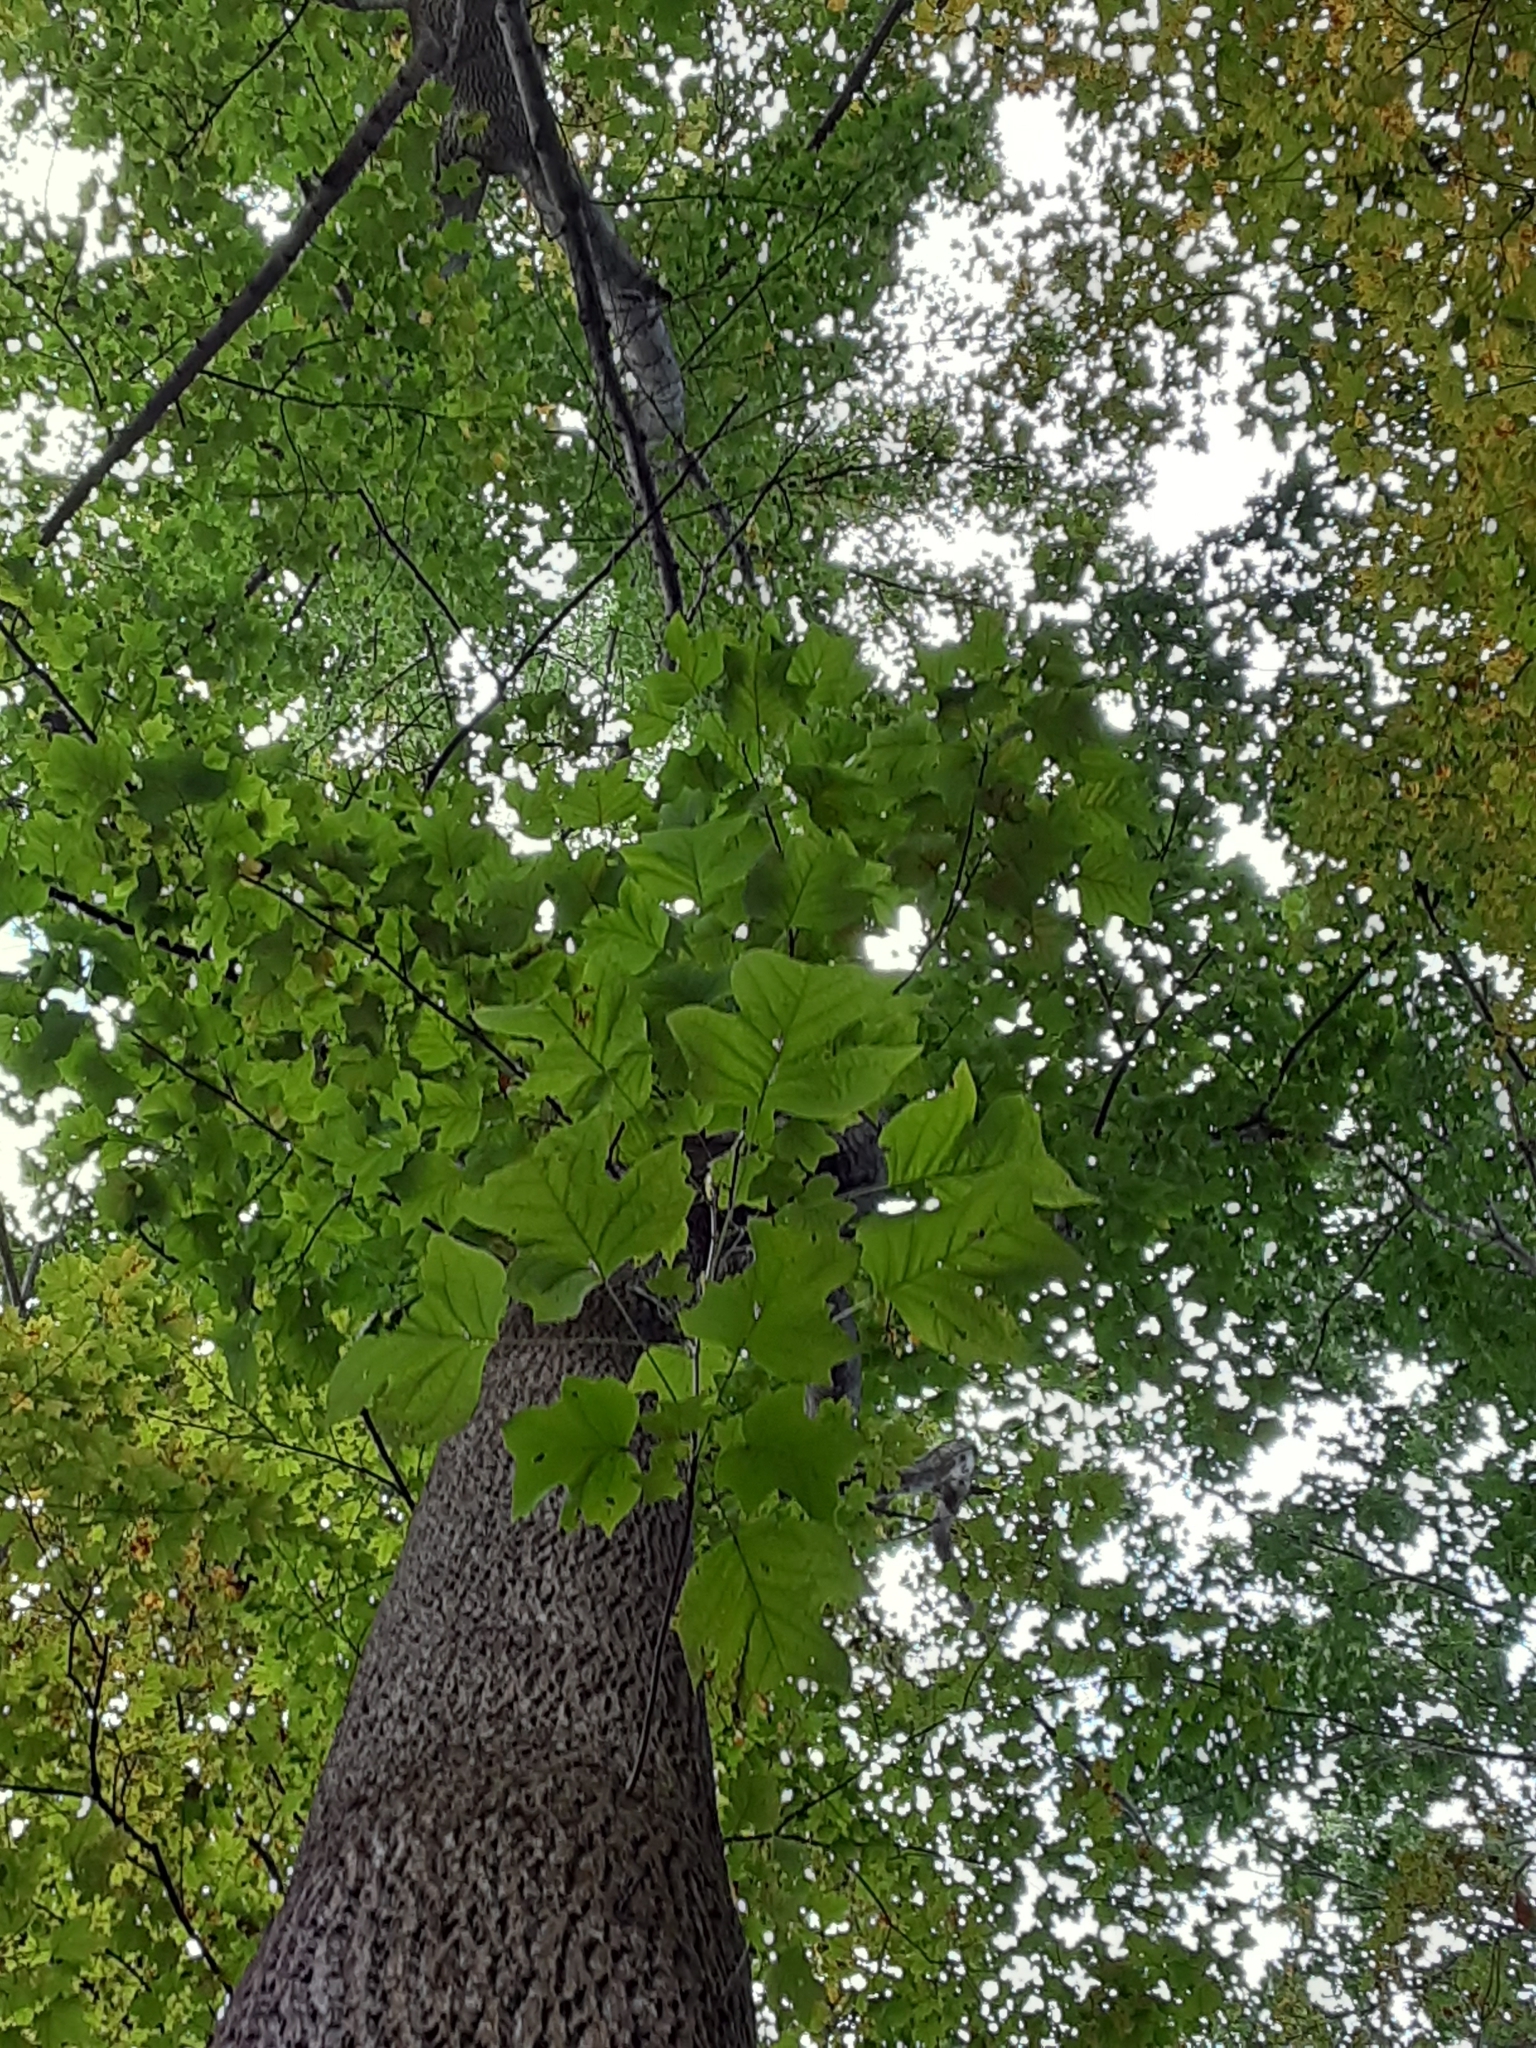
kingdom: Plantae
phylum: Tracheophyta
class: Magnoliopsida
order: Magnoliales
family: Magnoliaceae
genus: Liriodendron
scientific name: Liriodendron tulipifera
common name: Tulip tree
